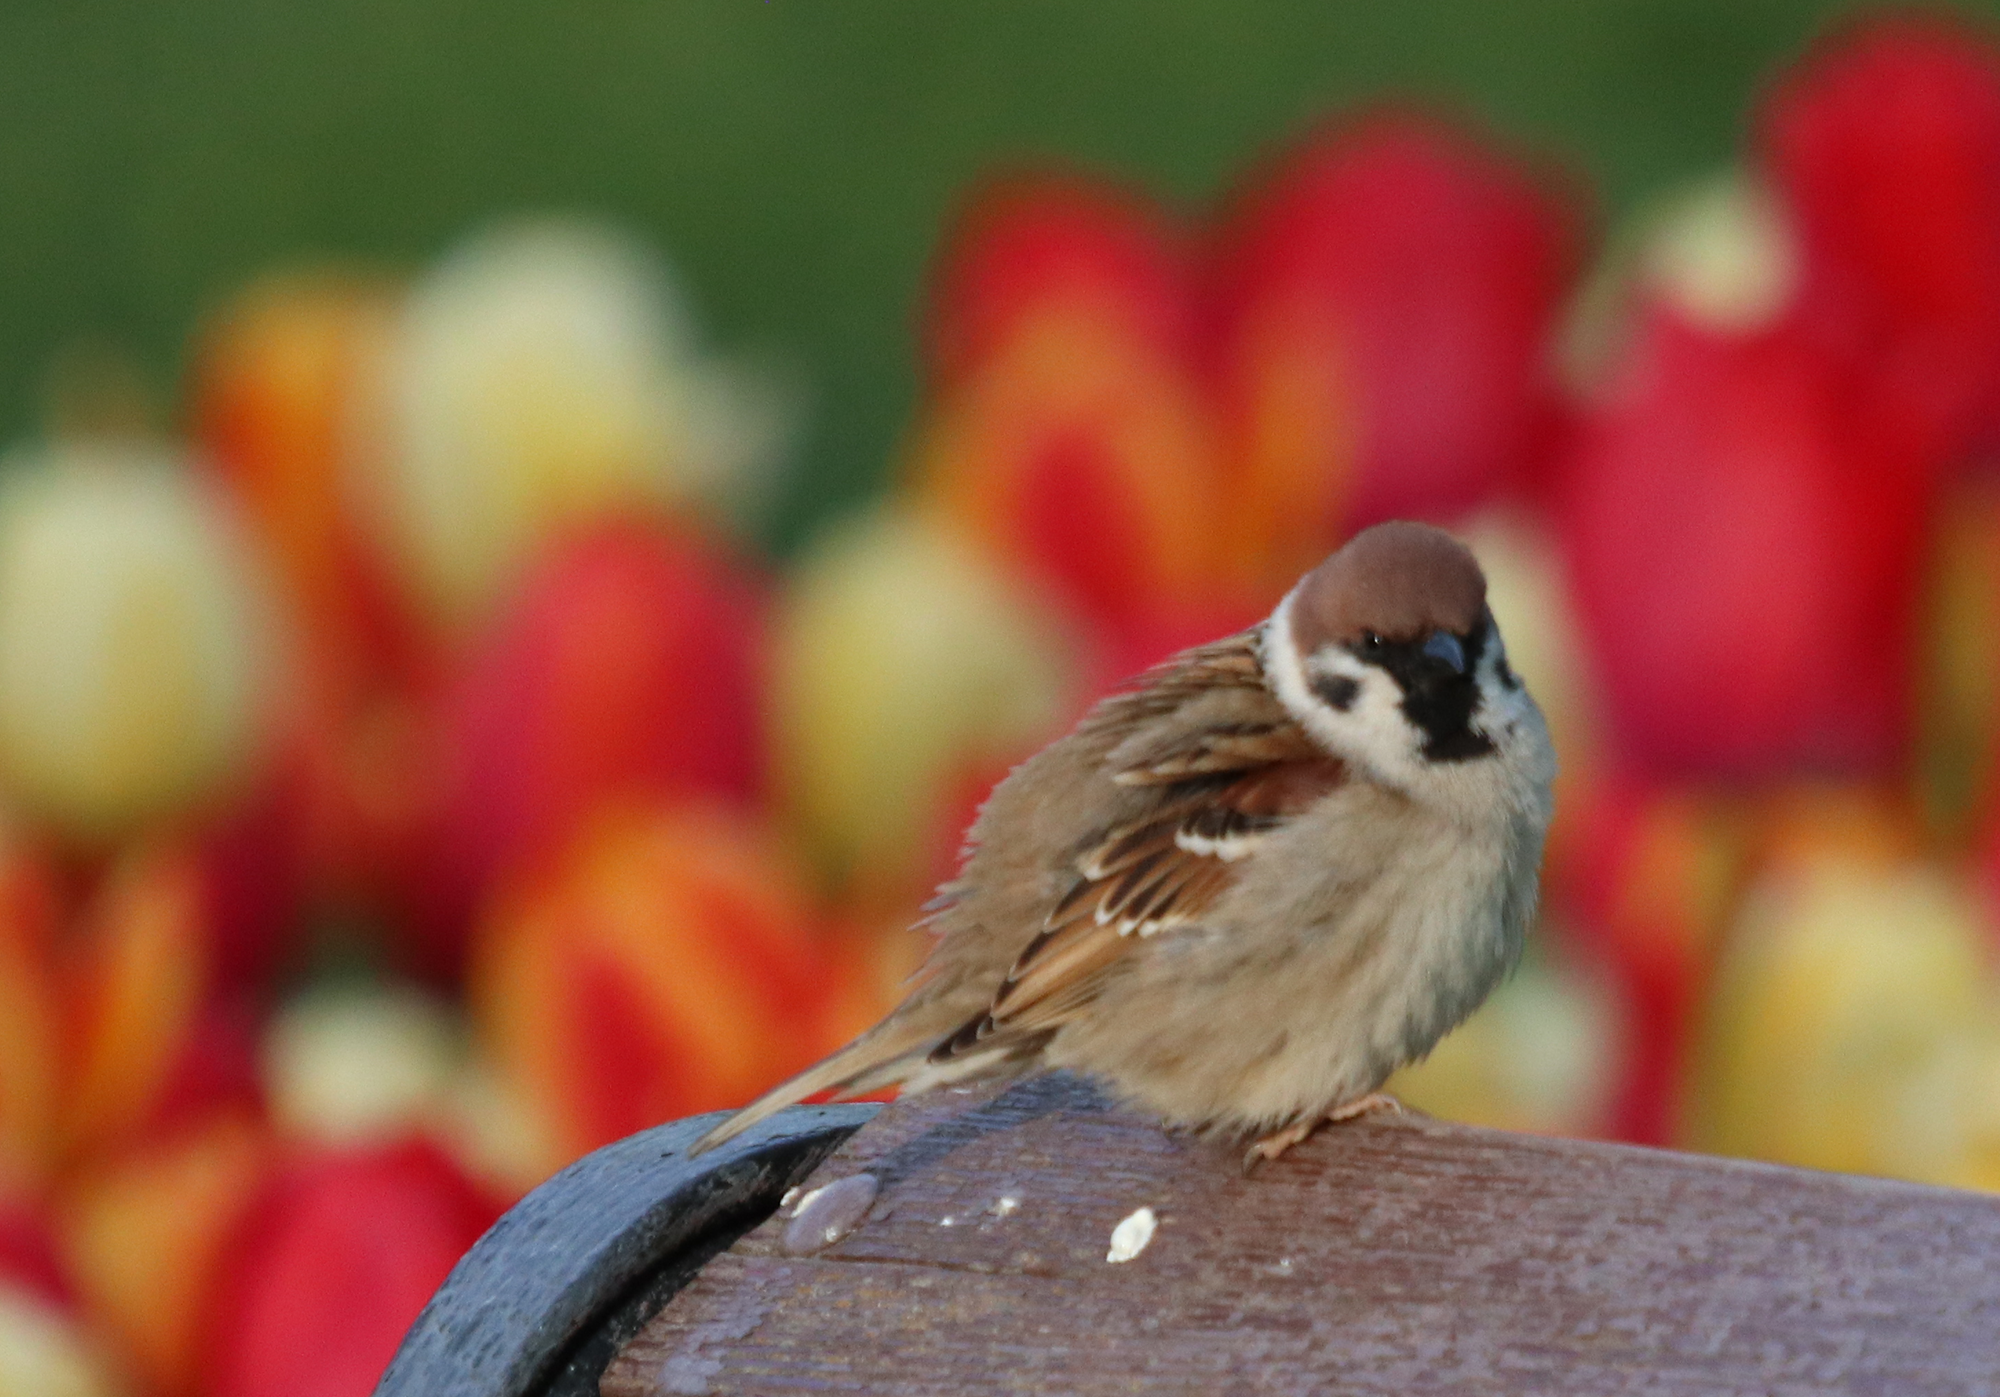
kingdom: Animalia
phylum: Chordata
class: Aves
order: Passeriformes
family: Passeridae
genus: Passer
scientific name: Passer montanus
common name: Eurasian tree sparrow
